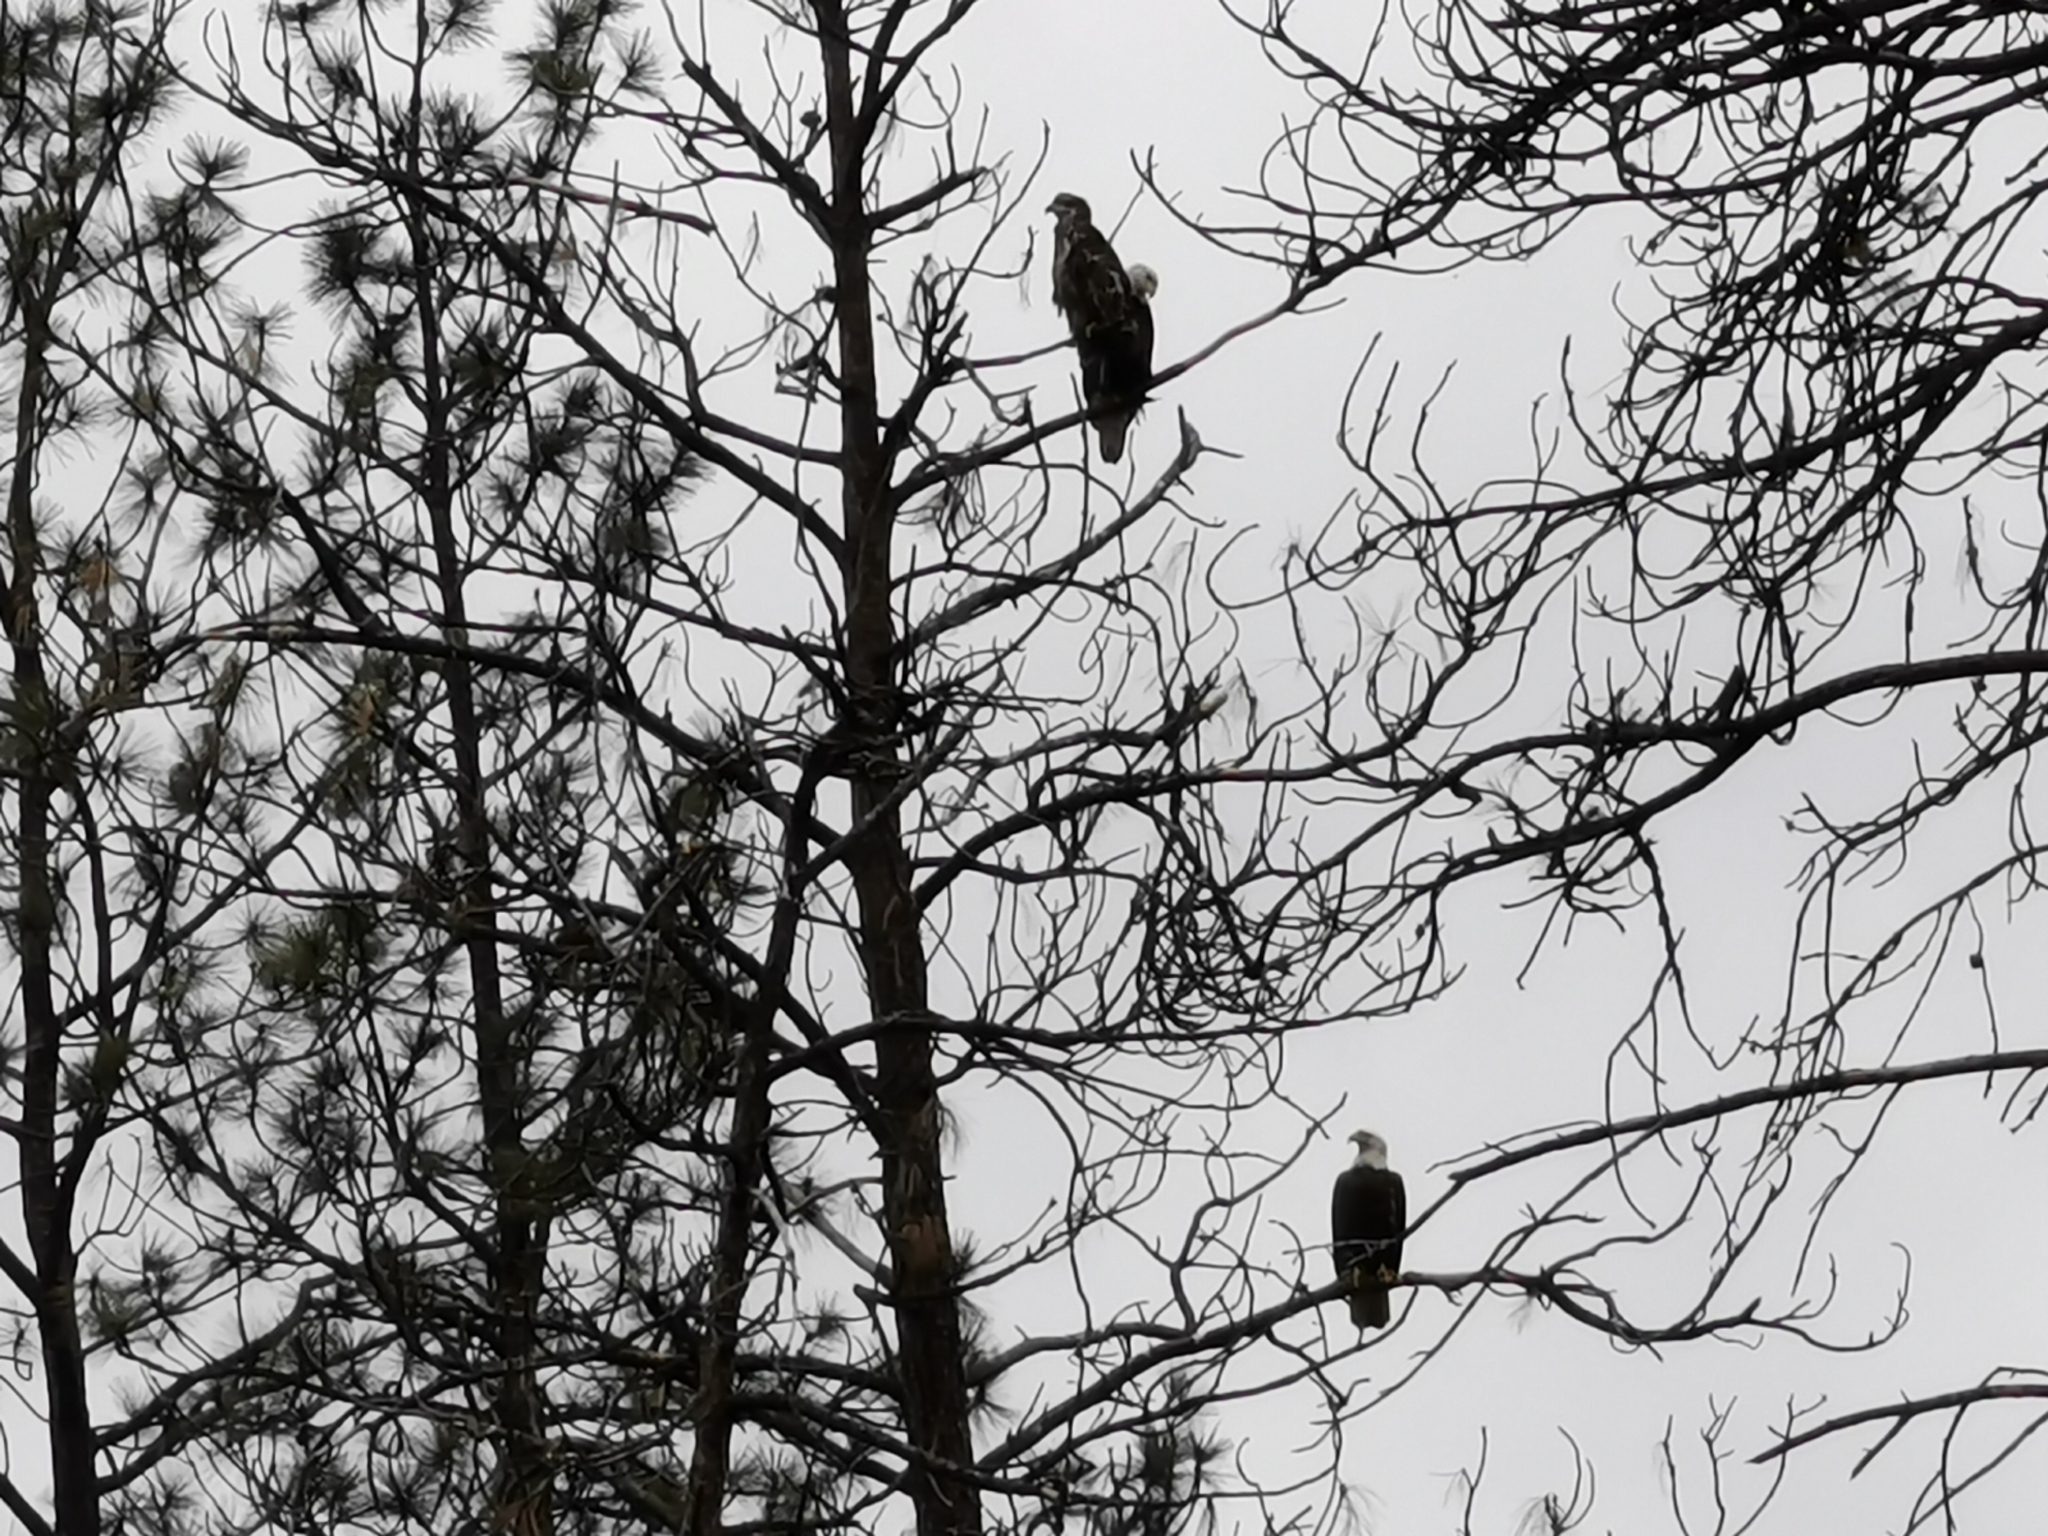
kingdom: Animalia
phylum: Chordata
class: Aves
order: Accipitriformes
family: Accipitridae
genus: Haliaeetus
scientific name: Haliaeetus leucocephalus
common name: Bald eagle
